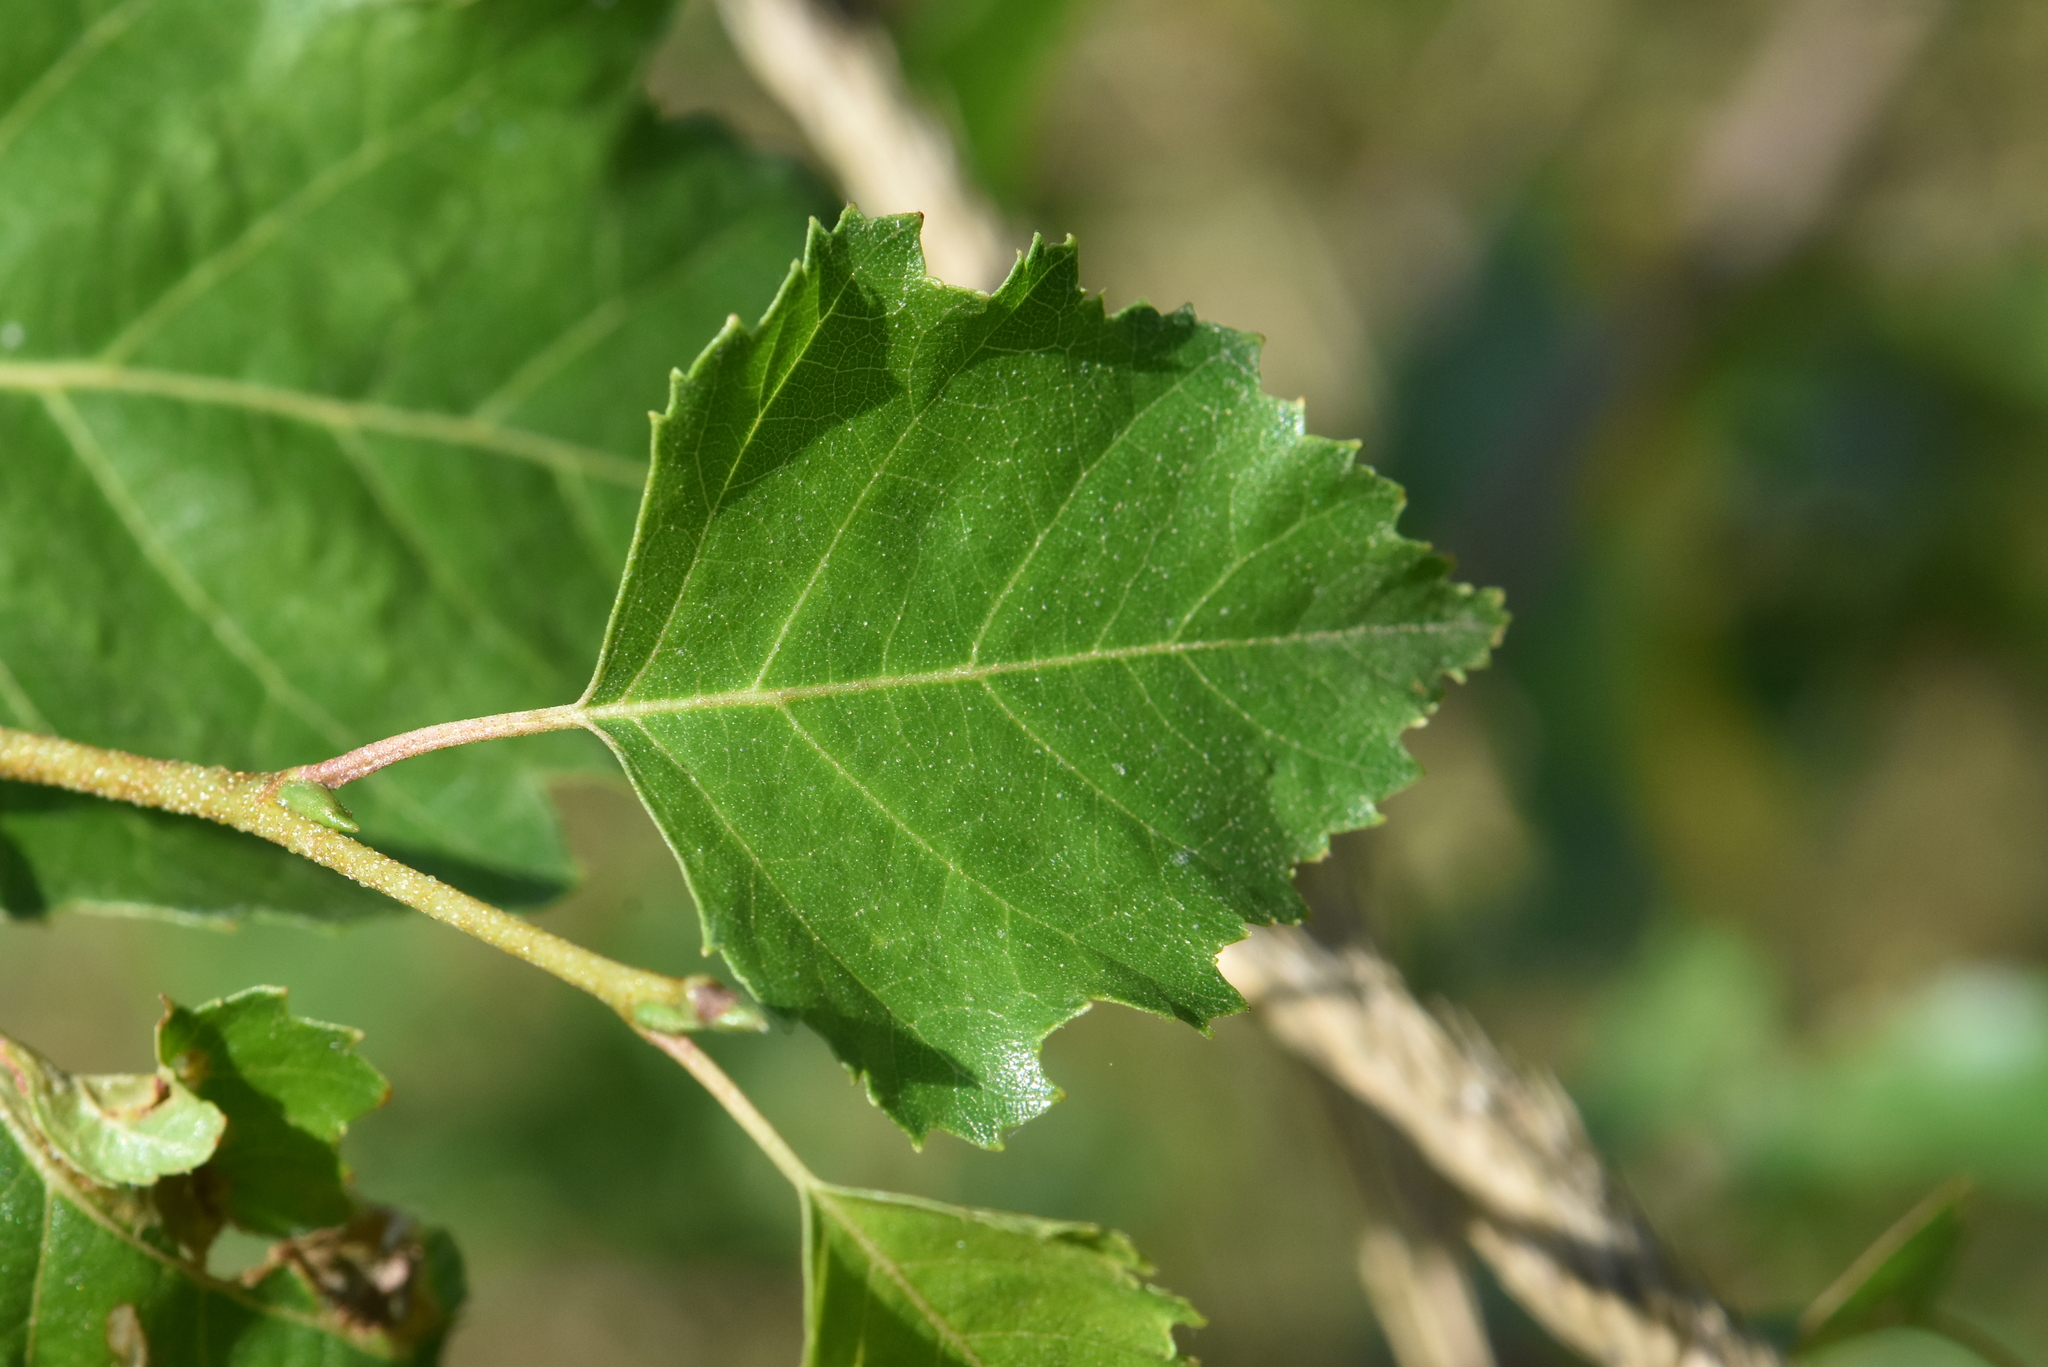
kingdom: Plantae
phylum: Tracheophyta
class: Magnoliopsida
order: Fagales
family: Betulaceae
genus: Betula
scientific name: Betula pendula
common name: Silver birch
